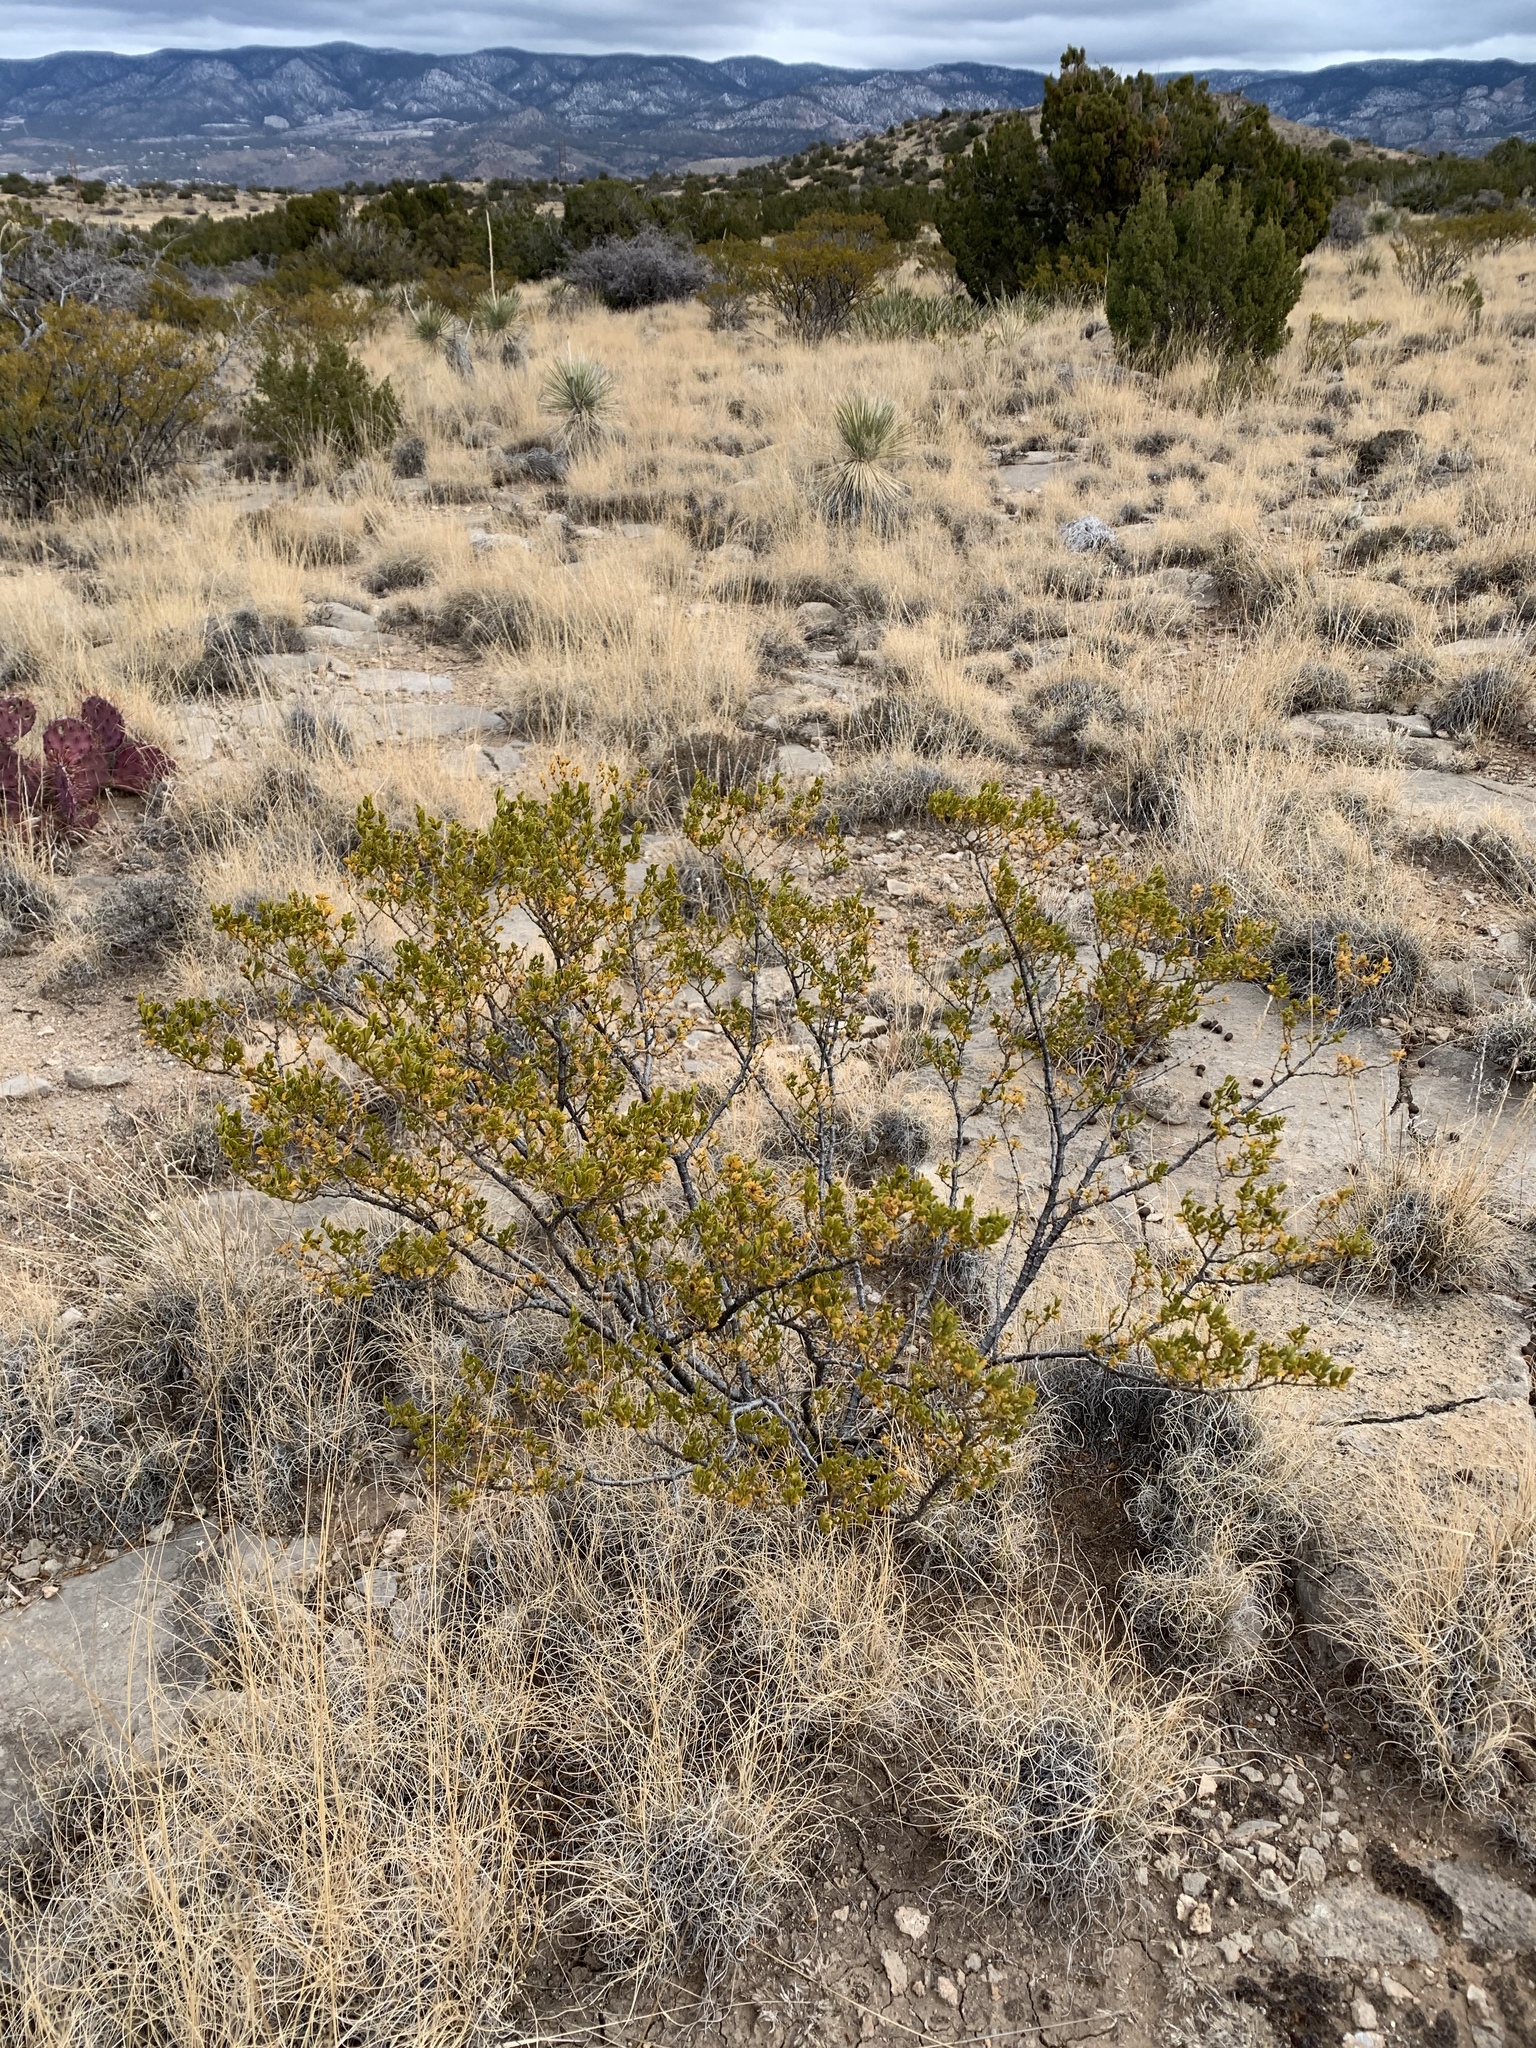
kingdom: Plantae
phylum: Tracheophyta
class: Magnoliopsida
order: Zygophyllales
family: Zygophyllaceae
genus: Larrea
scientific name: Larrea tridentata
